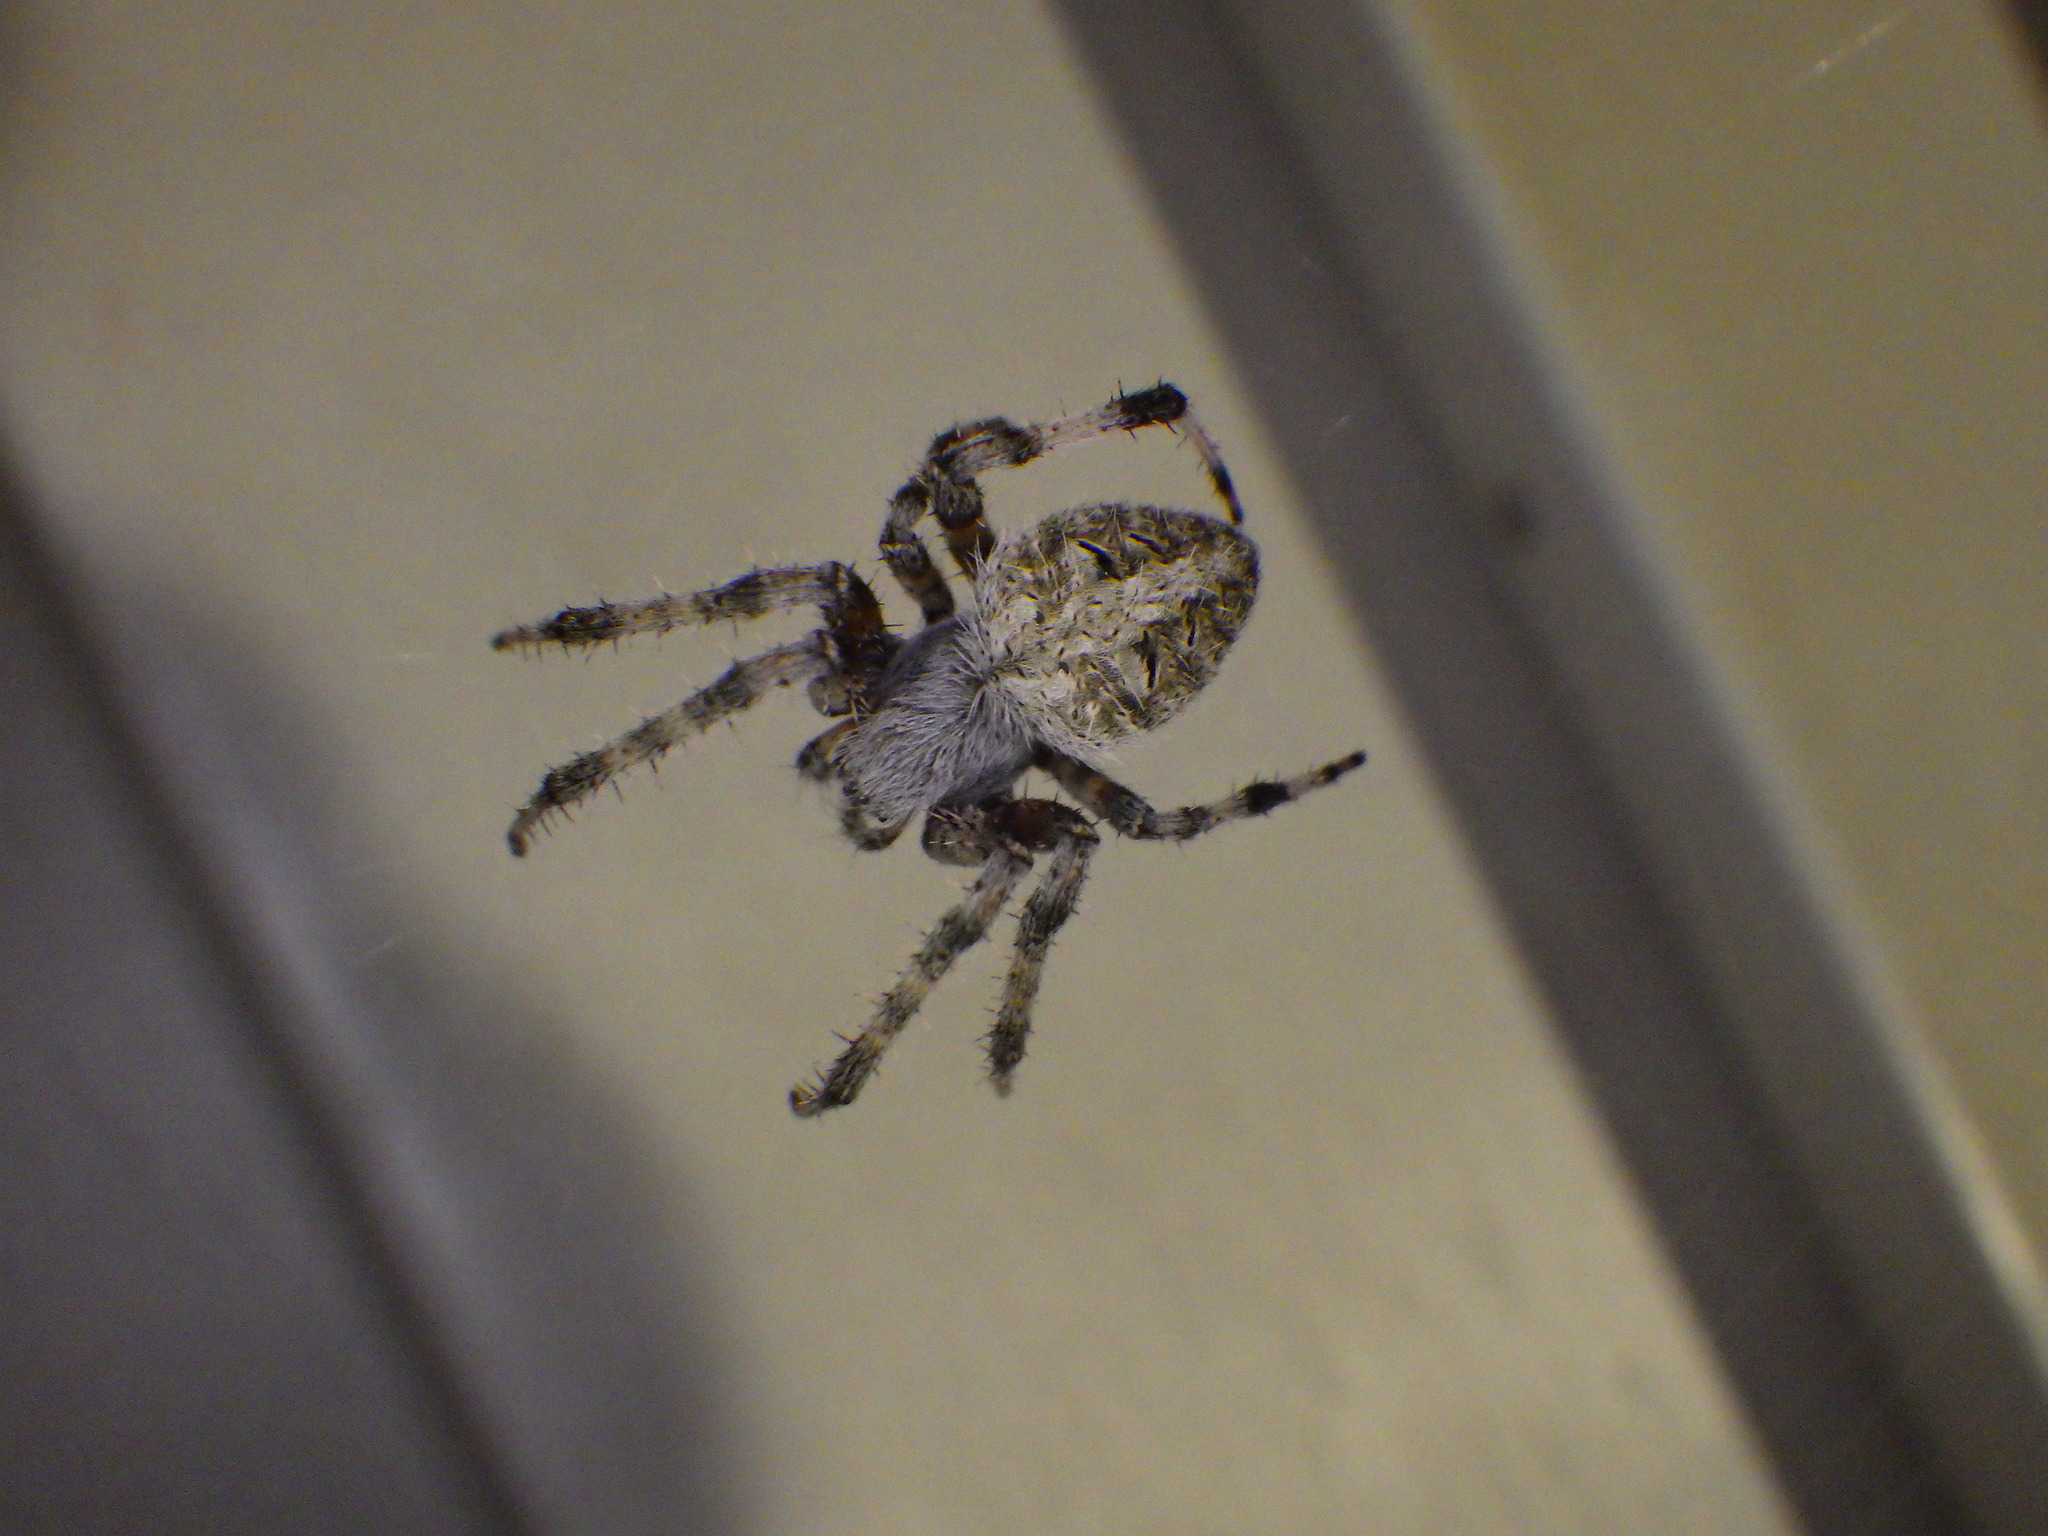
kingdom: Animalia
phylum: Arthropoda
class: Arachnida
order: Araneae
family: Araneidae
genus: Neoscona
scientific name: Neoscona crucifera
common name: Spotted orbweaver
